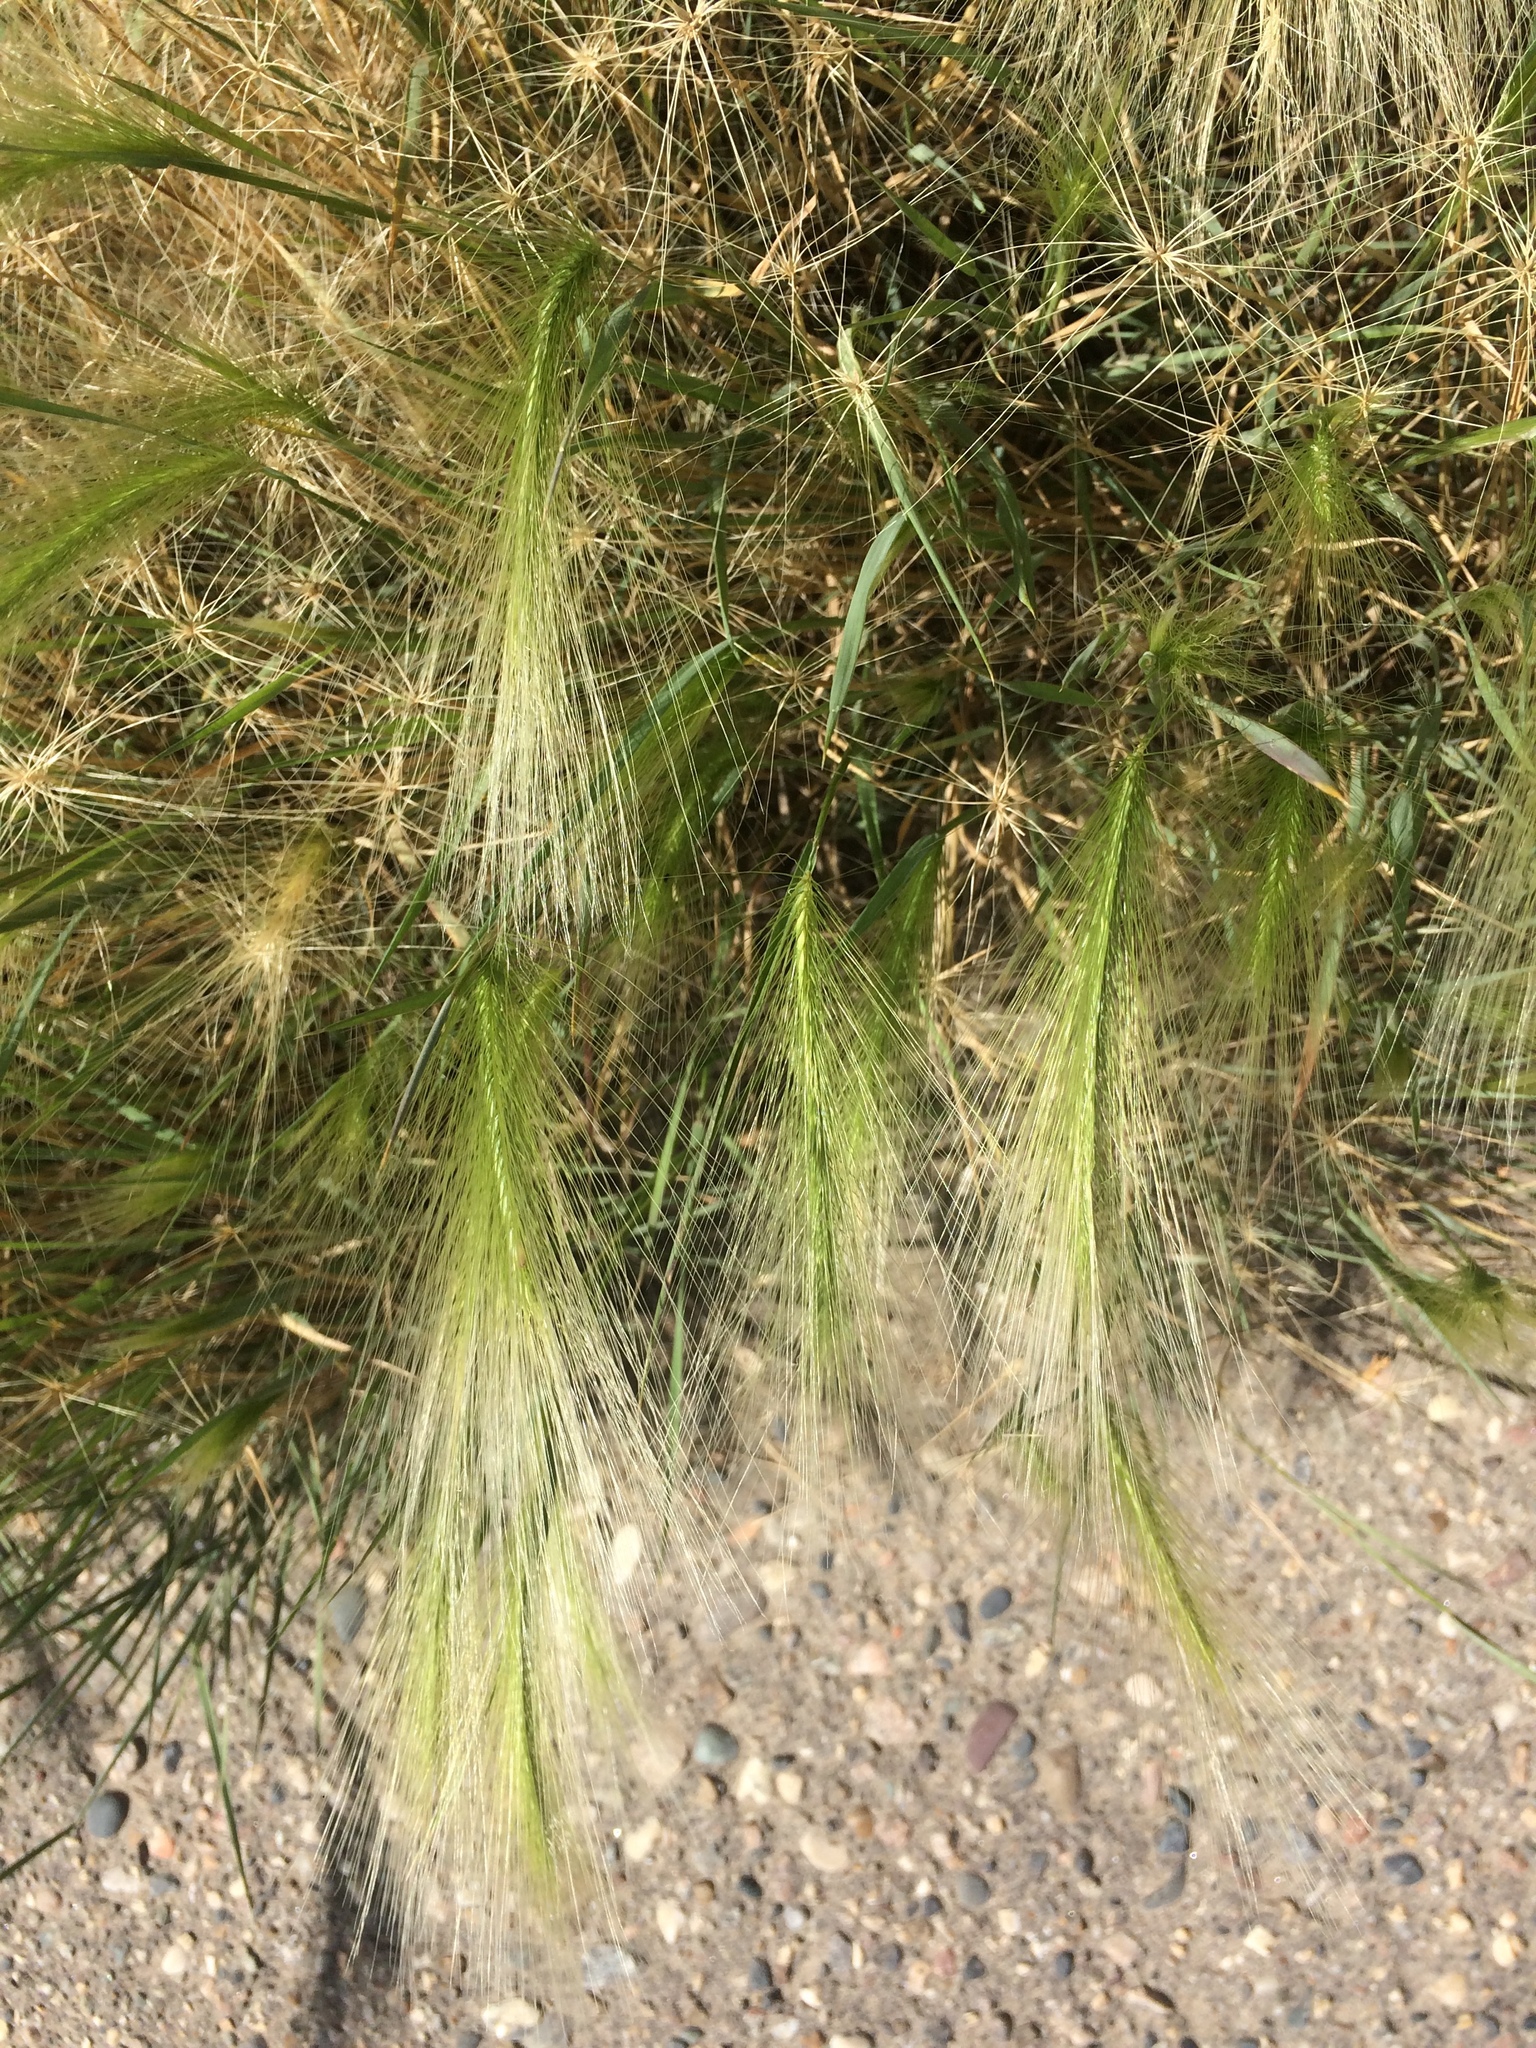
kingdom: Plantae
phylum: Tracheophyta
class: Liliopsida
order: Poales
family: Poaceae
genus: Hordeum
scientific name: Hordeum jubatum
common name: Foxtail barley
